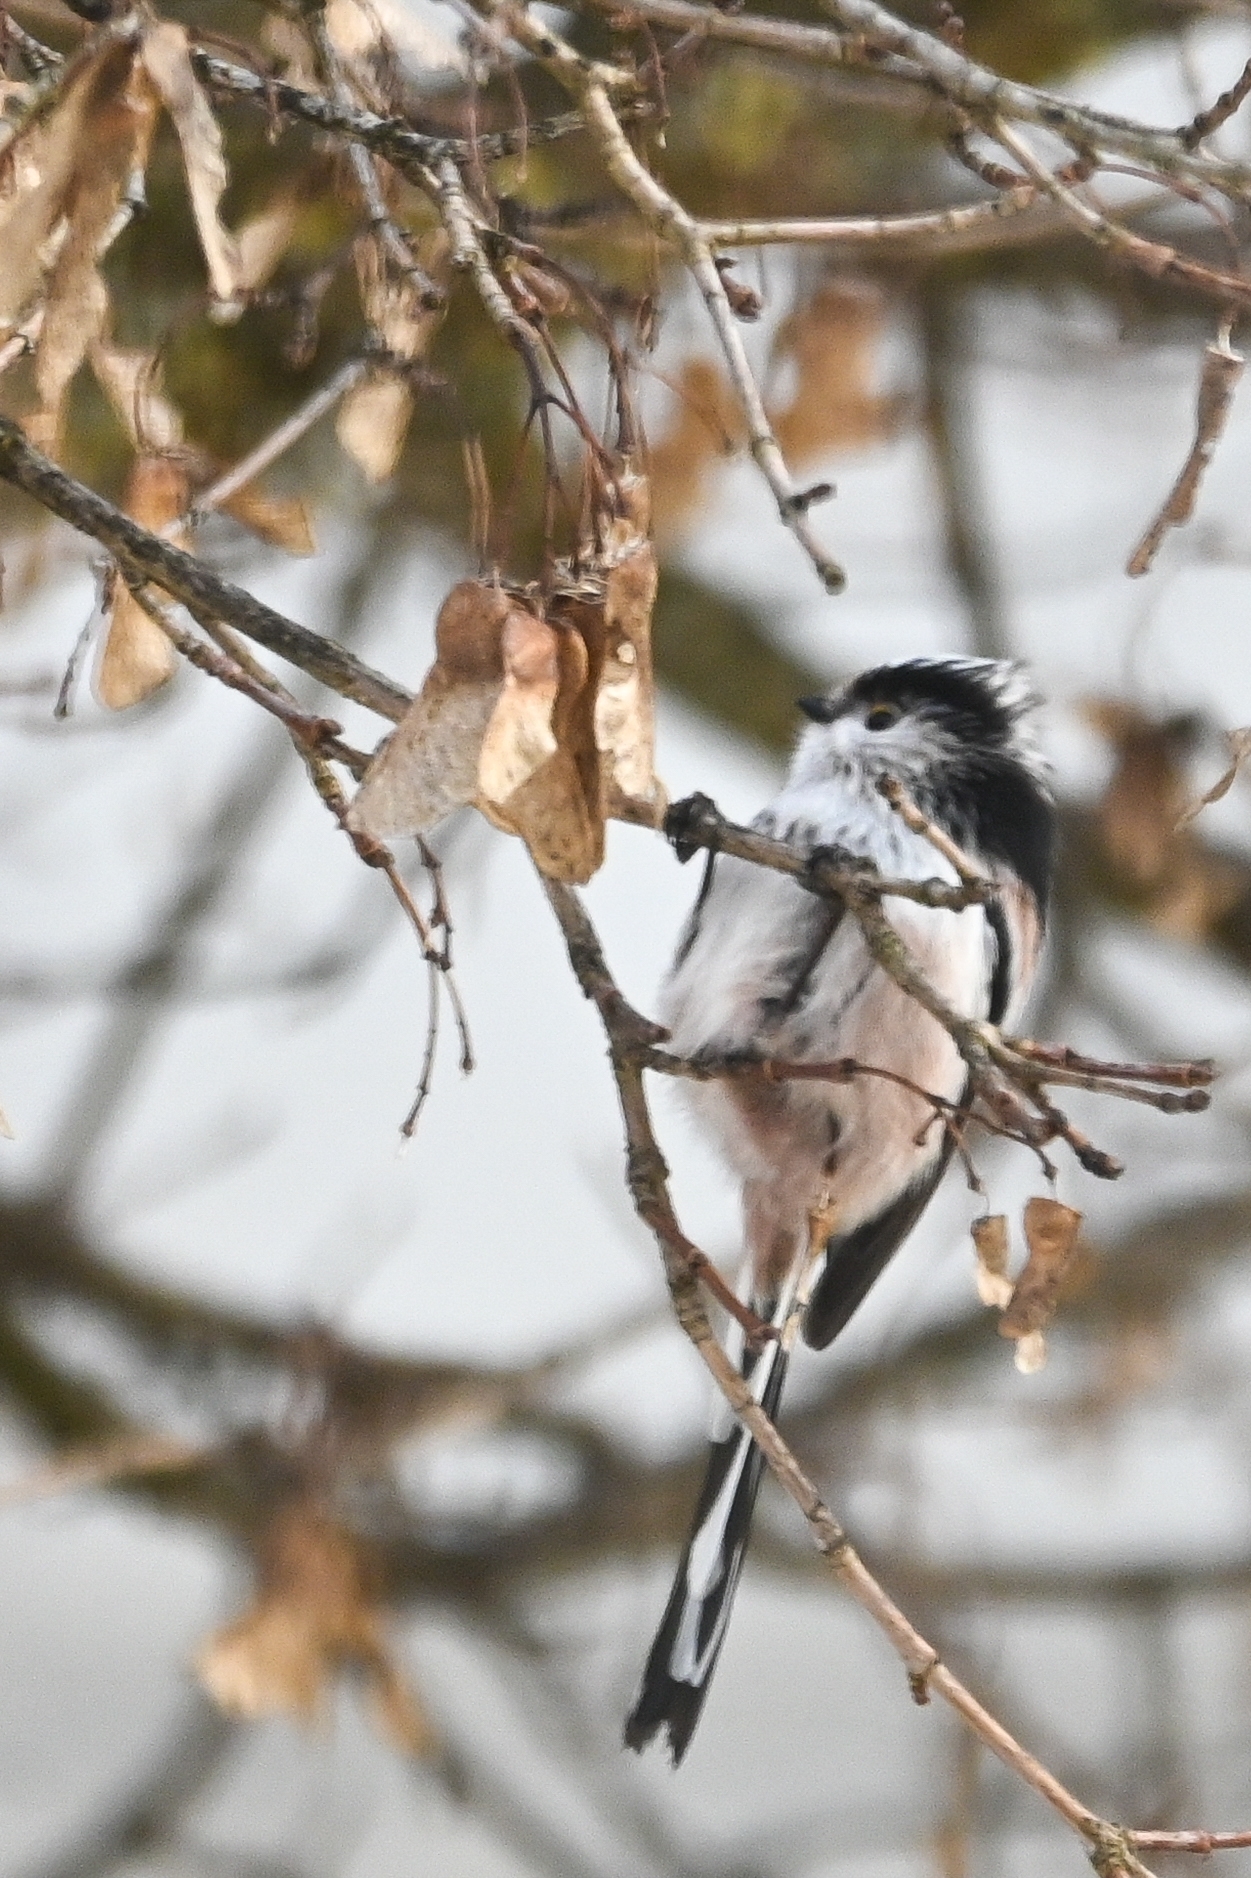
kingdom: Animalia
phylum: Chordata
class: Aves
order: Passeriformes
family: Aegithalidae
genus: Aegithalos
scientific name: Aegithalos caudatus
